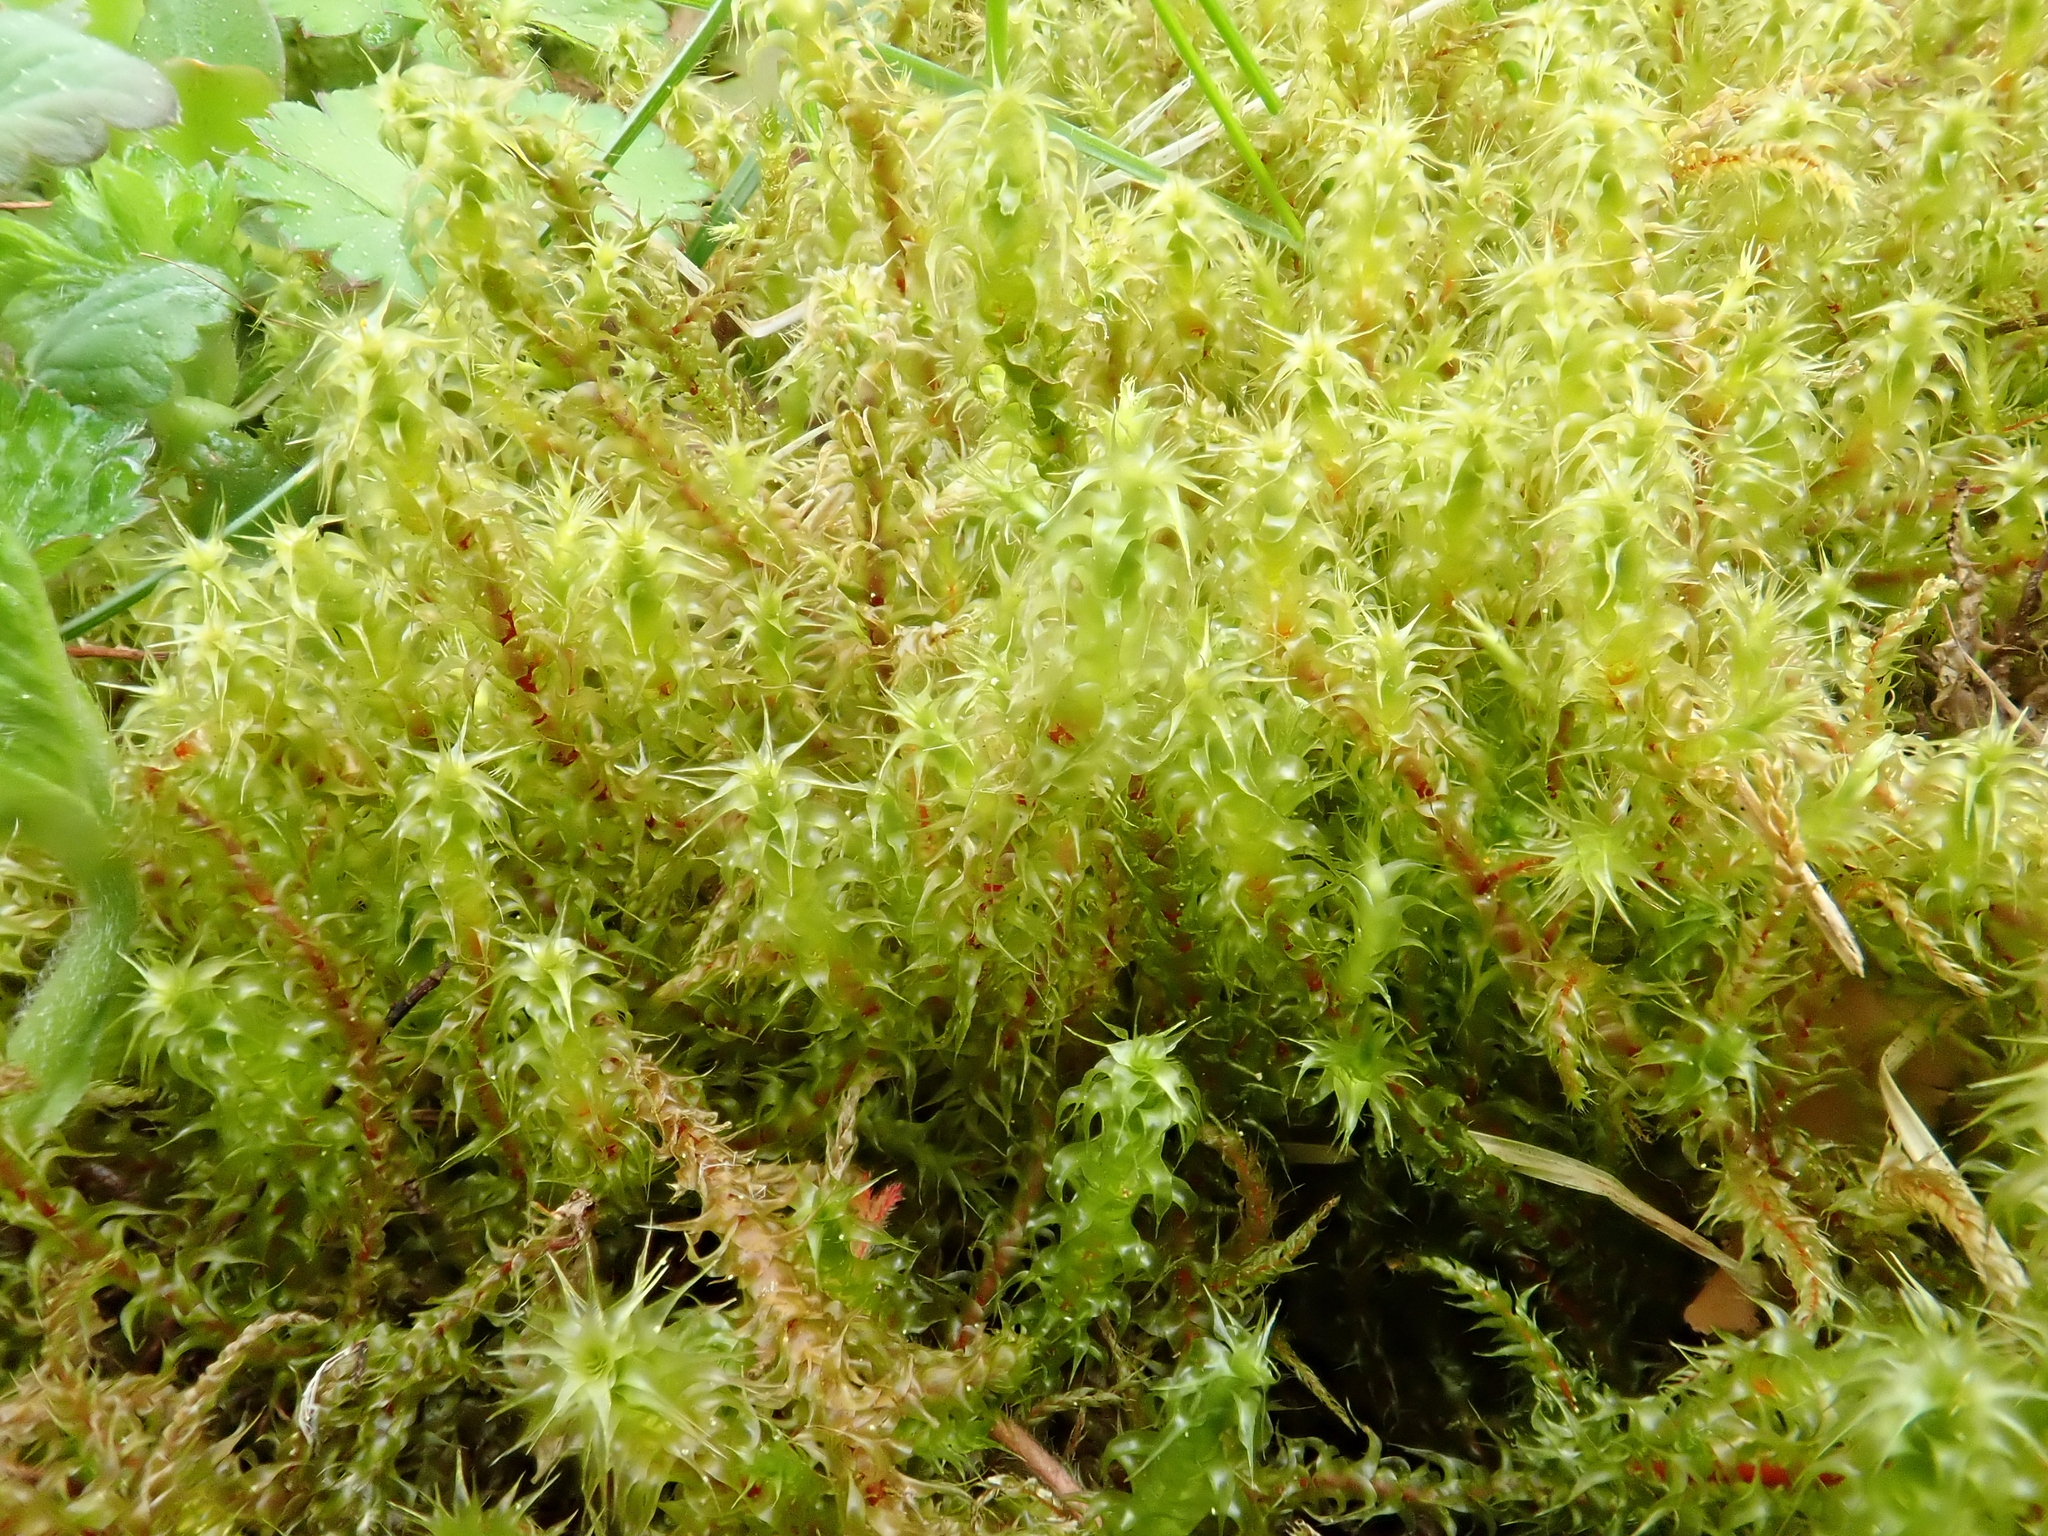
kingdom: Plantae
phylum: Bryophyta
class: Bryopsida
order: Hypnales
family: Hylocomiaceae
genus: Rhytidiadelphus
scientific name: Rhytidiadelphus squarrosus
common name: Springy turf-moss
